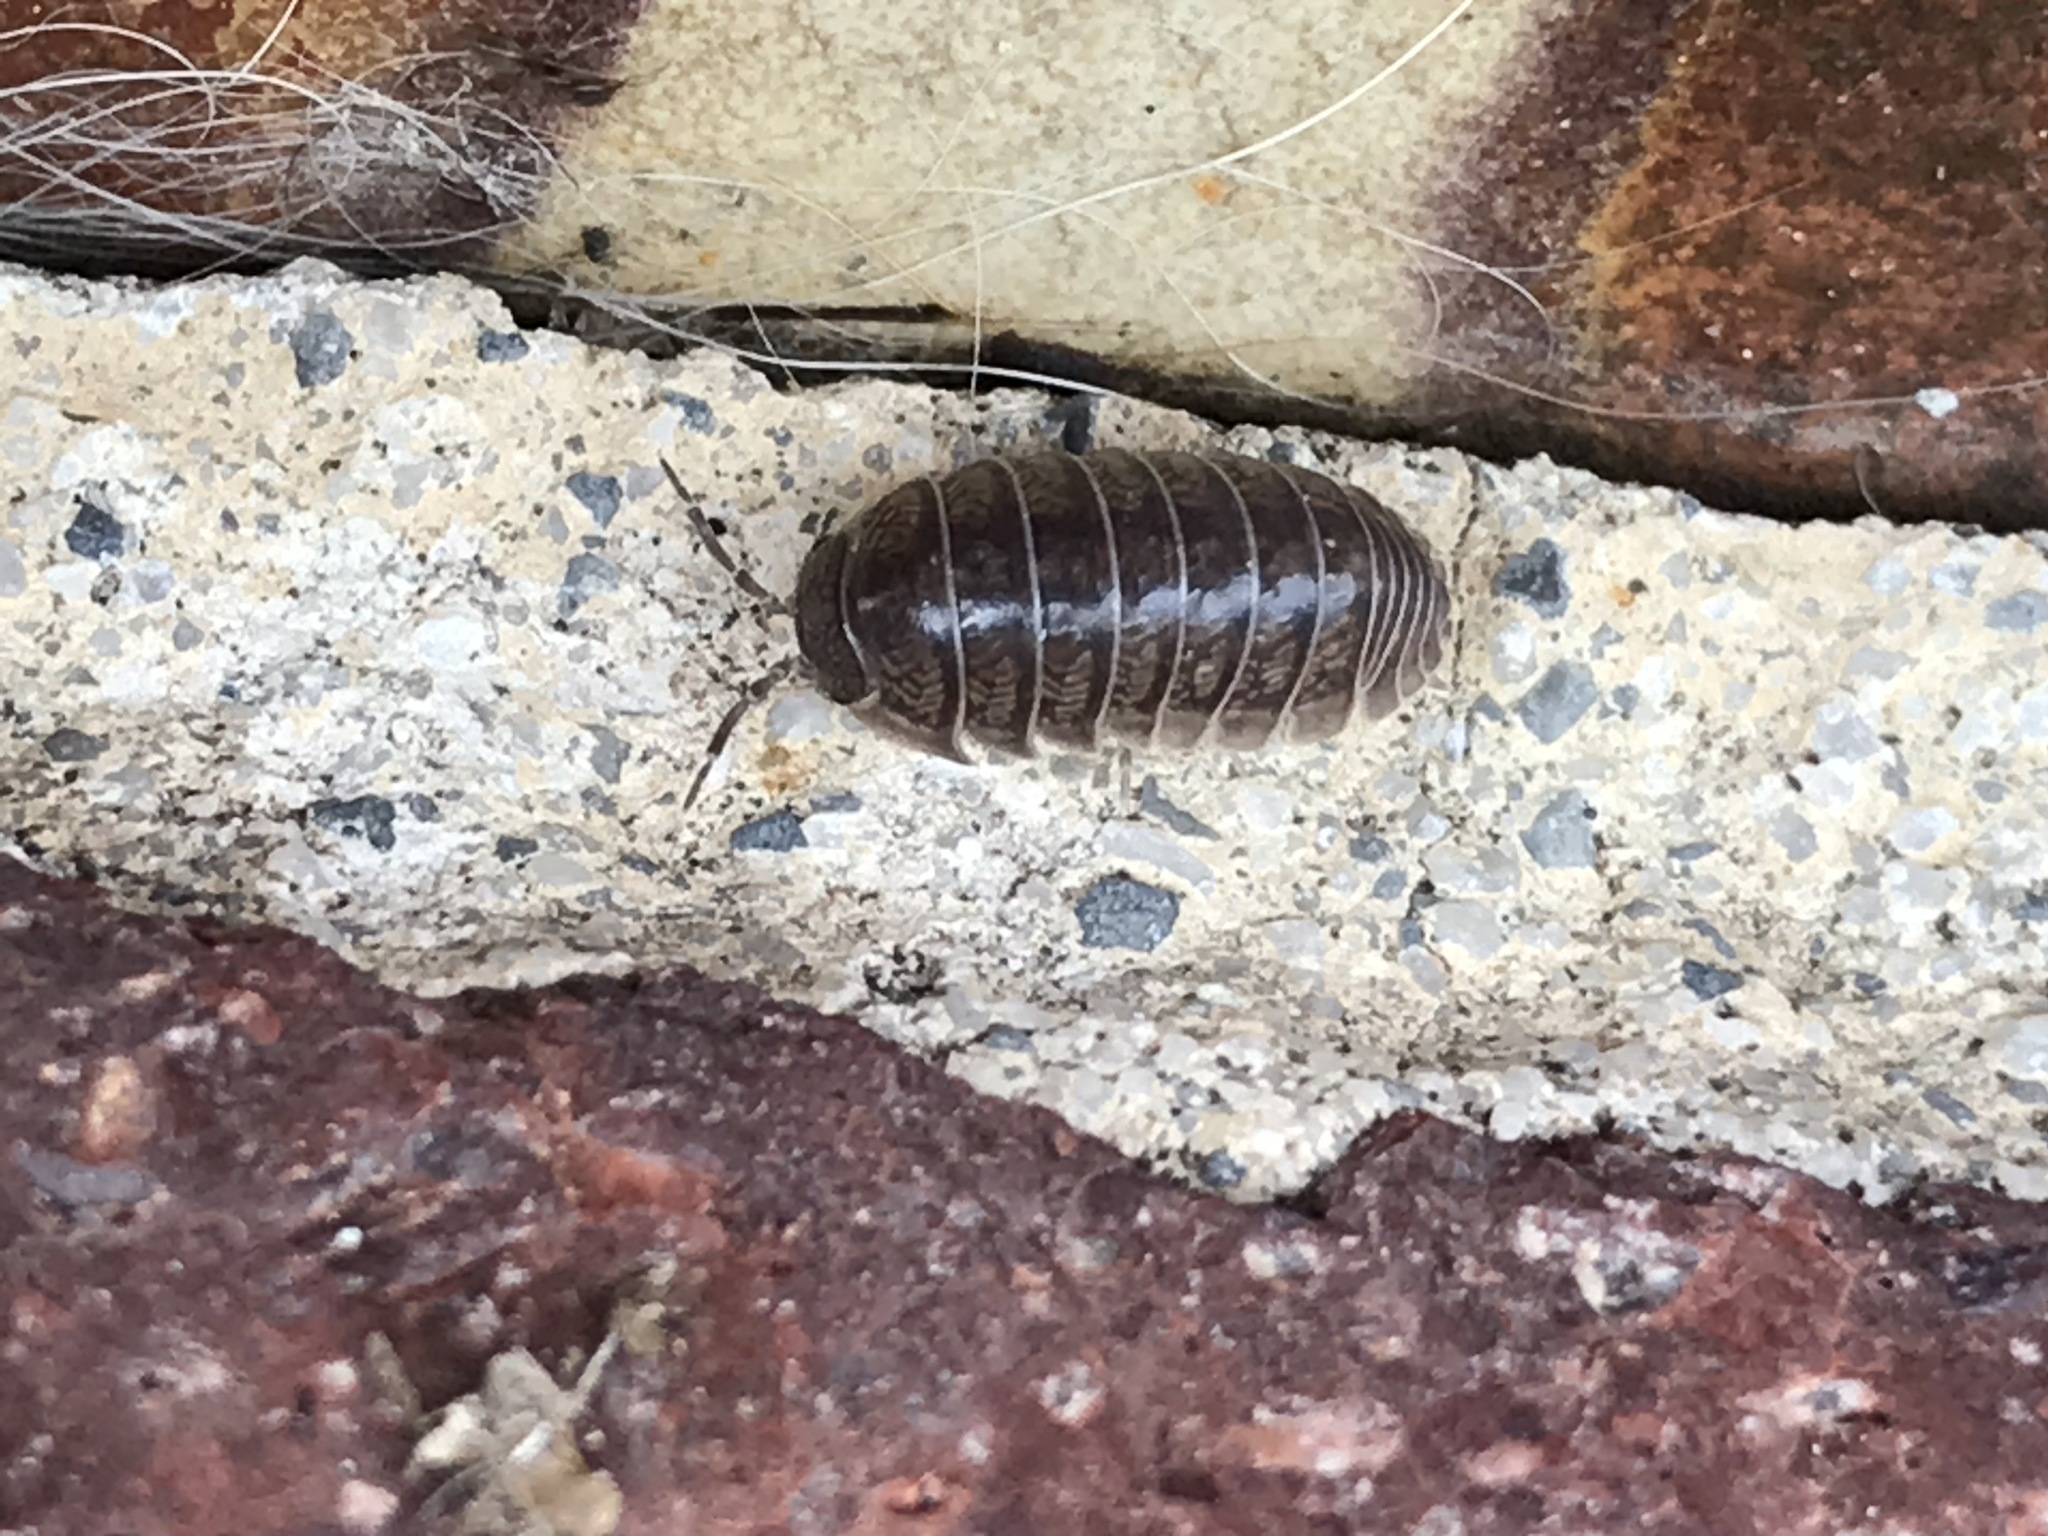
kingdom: Animalia
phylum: Arthropoda
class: Malacostraca
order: Isopoda
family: Armadillidiidae
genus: Armadillidium
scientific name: Armadillidium vulgare
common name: Common pill woodlouse
